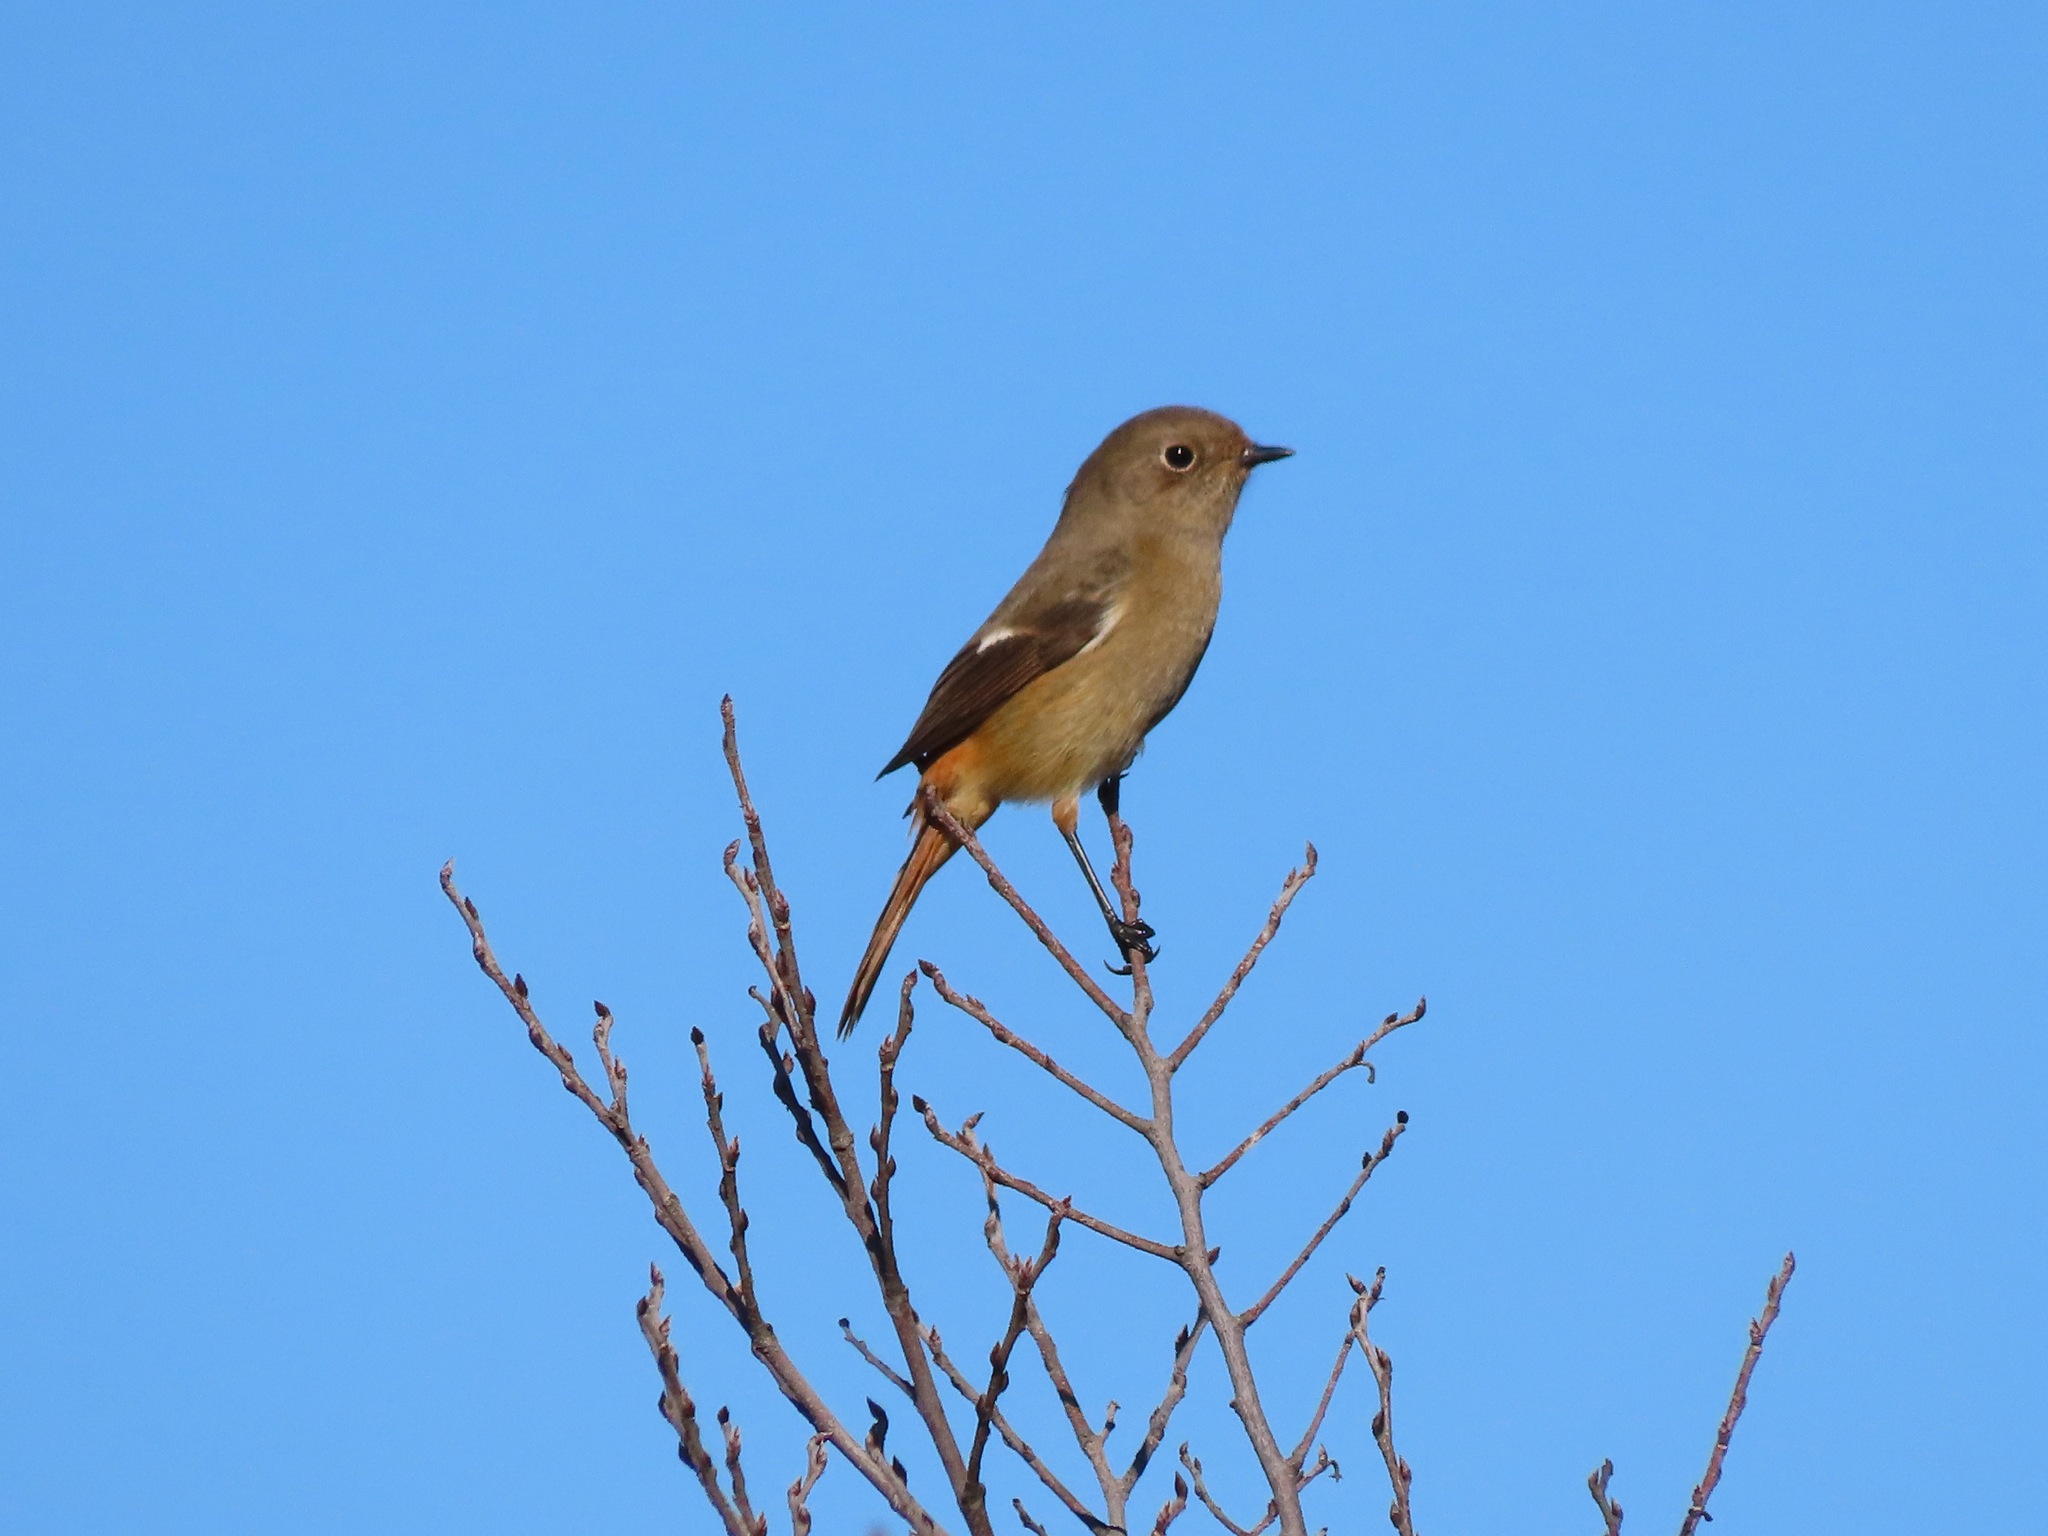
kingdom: Animalia
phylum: Chordata
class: Aves
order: Passeriformes
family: Muscicapidae
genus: Phoenicurus
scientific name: Phoenicurus auroreus
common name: Daurian redstart
